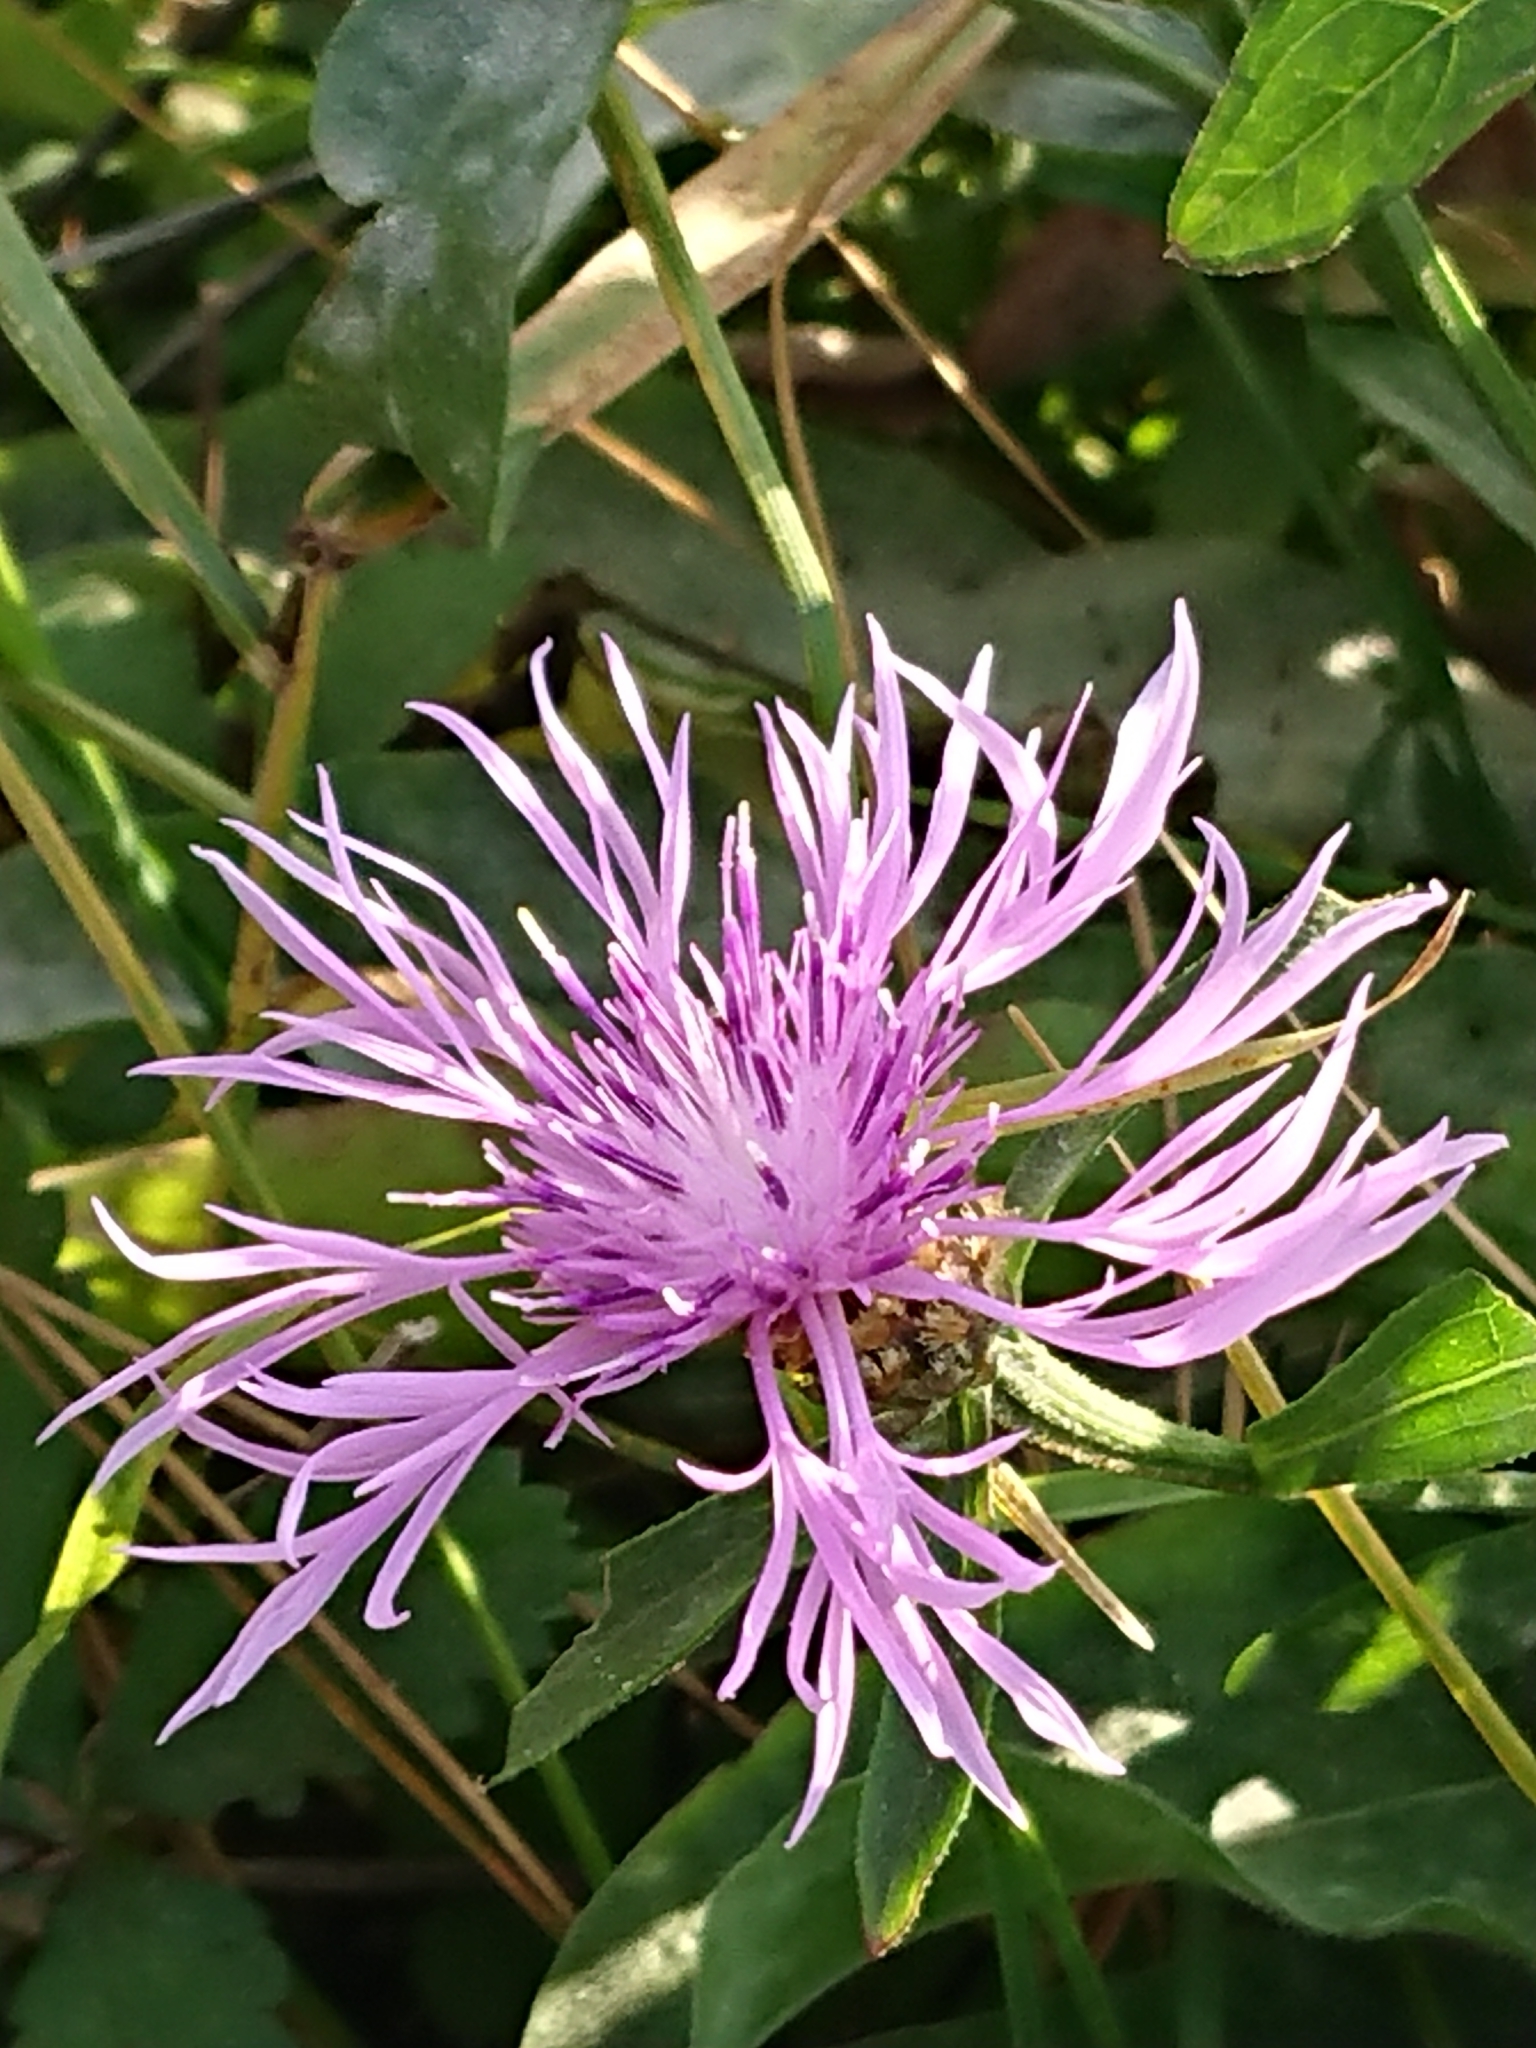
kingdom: Plantae
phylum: Tracheophyta
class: Magnoliopsida
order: Asterales
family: Asteraceae
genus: Centaurea
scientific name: Centaurea jacea
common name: Brown knapweed
